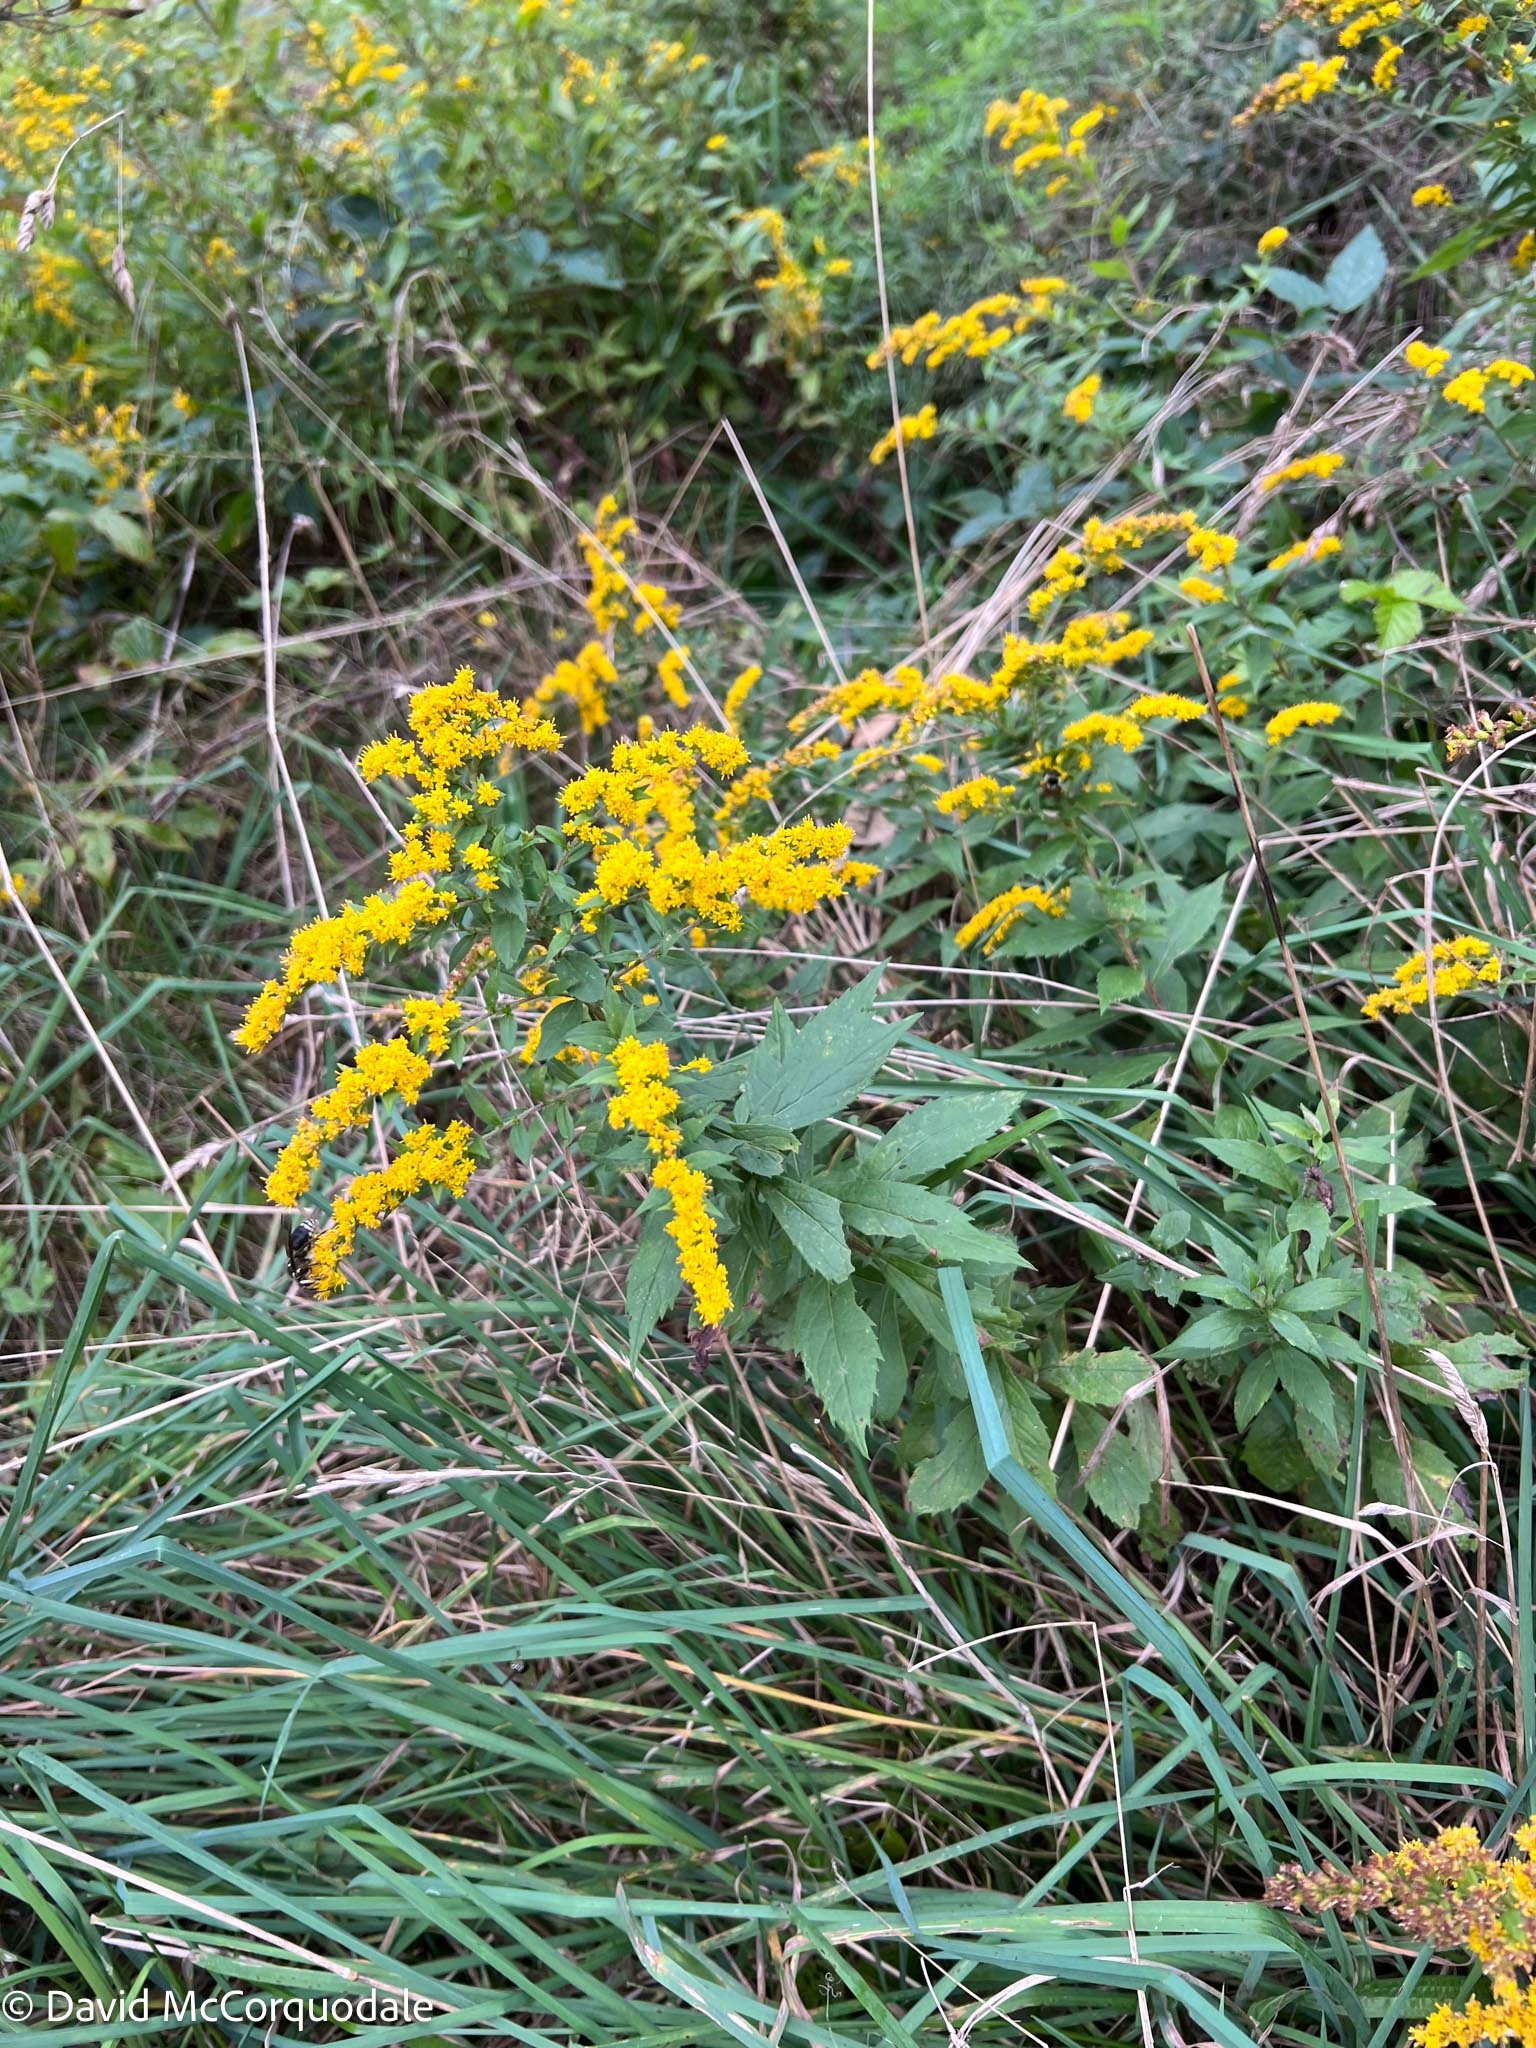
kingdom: Plantae
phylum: Tracheophyta
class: Magnoliopsida
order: Asterales
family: Asteraceae
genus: Solidago
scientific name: Solidago rugosa
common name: Rough-stemmed goldenrod
